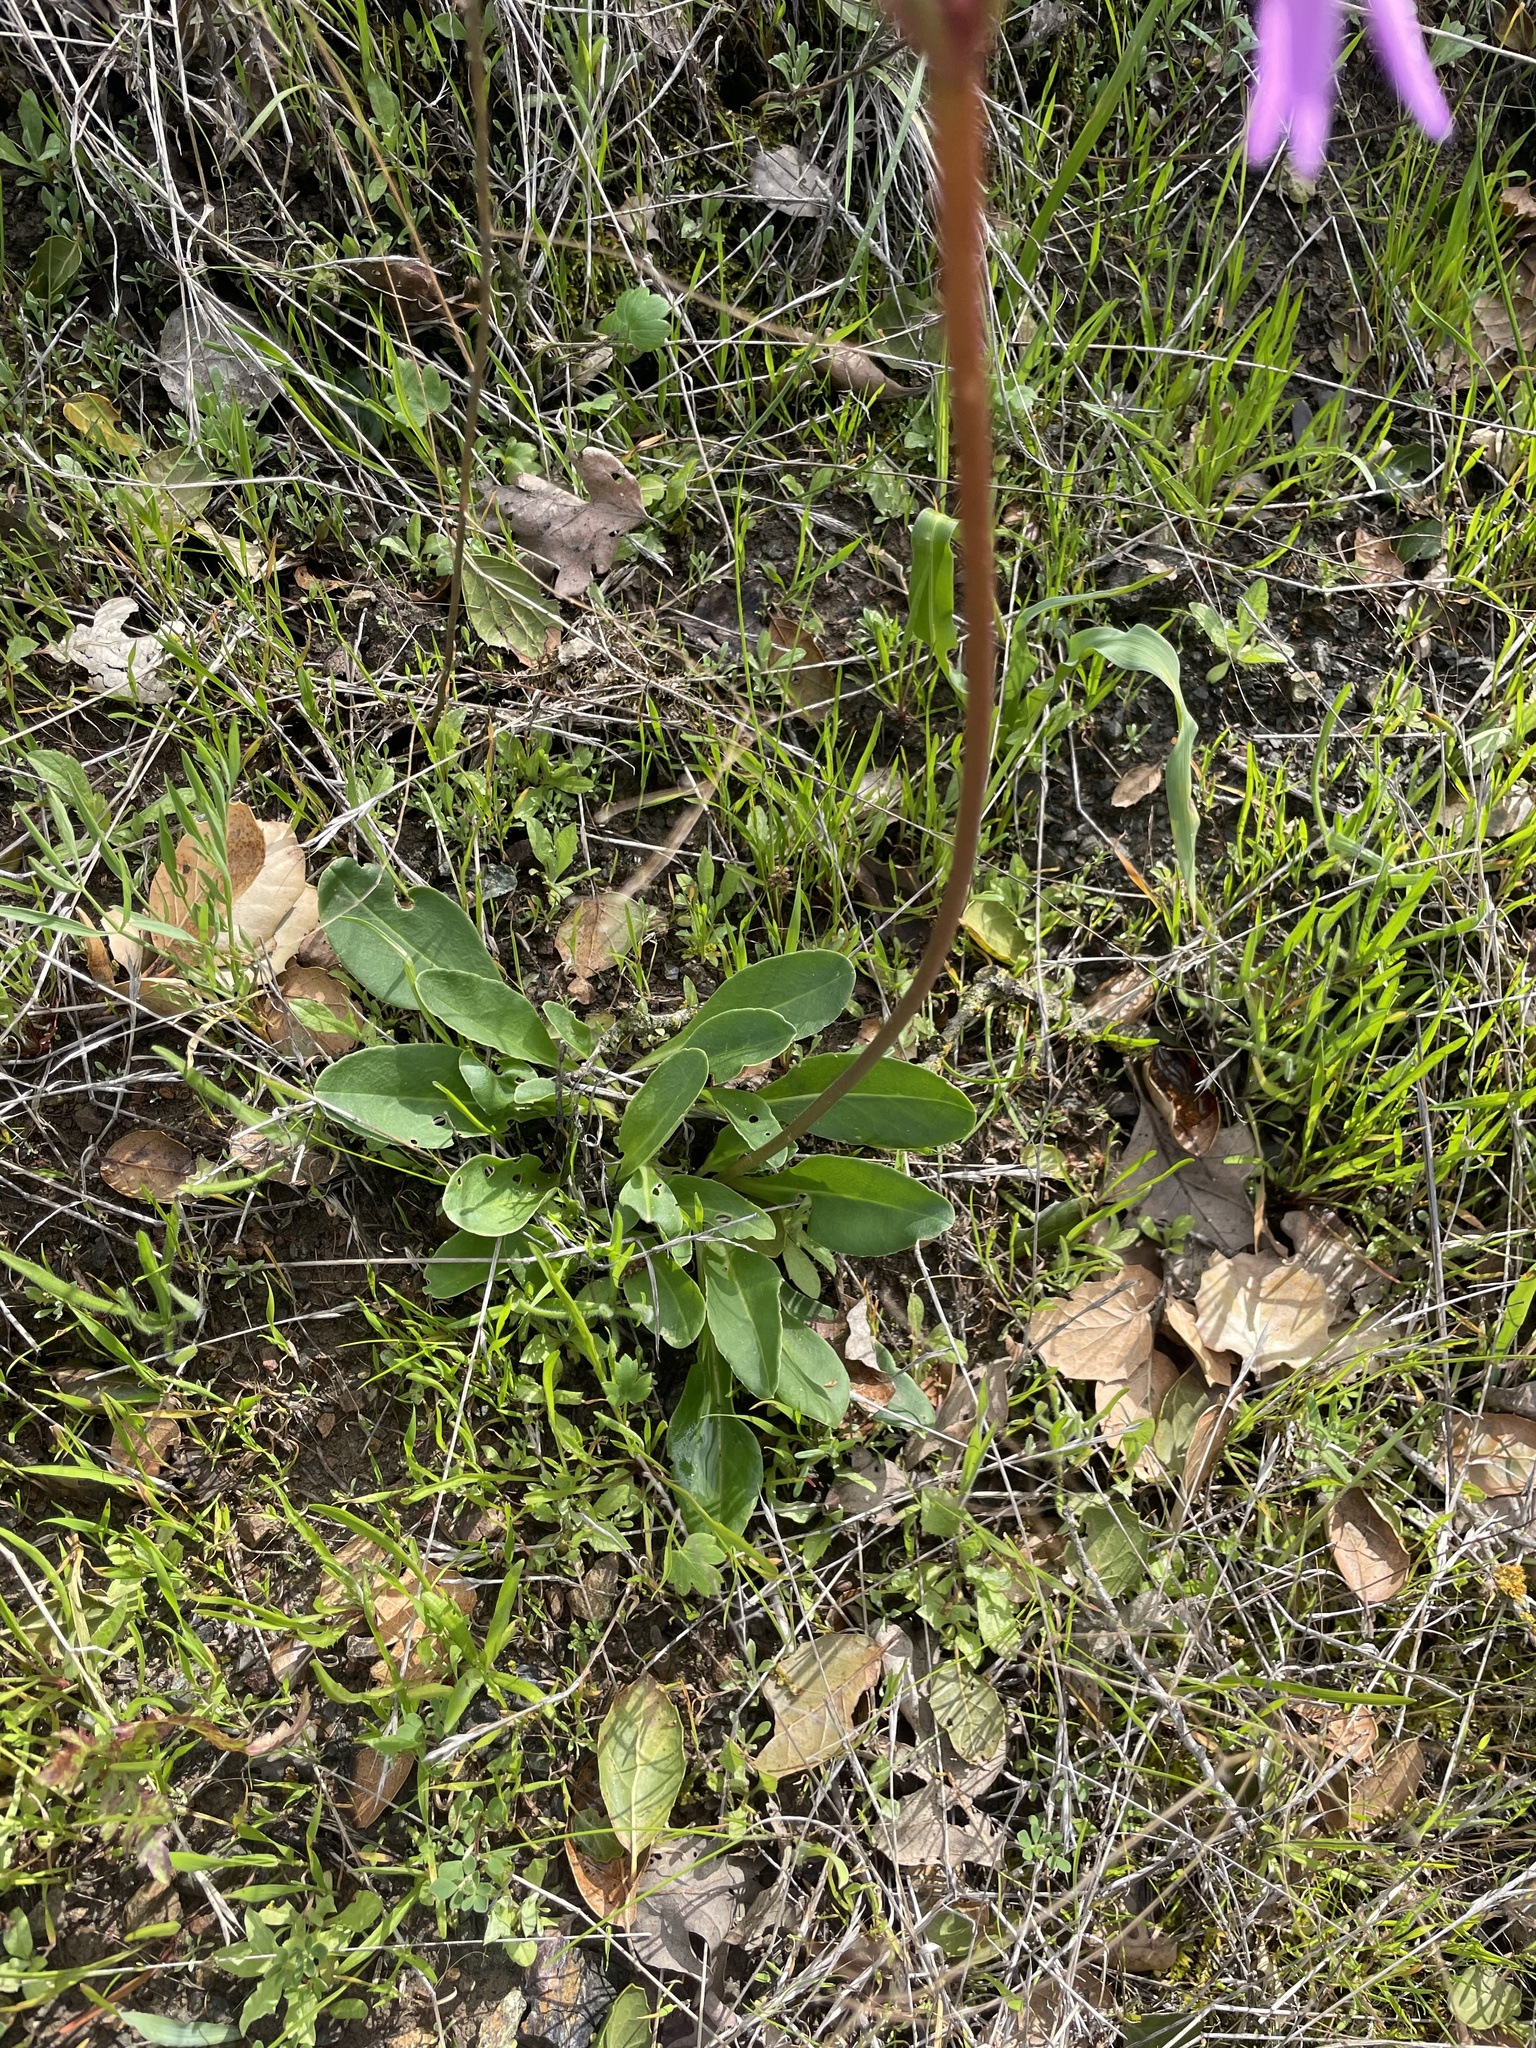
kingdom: Plantae
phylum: Tracheophyta
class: Magnoliopsida
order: Ericales
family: Primulaceae
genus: Dodecatheon
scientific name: Dodecatheon hendersonii
